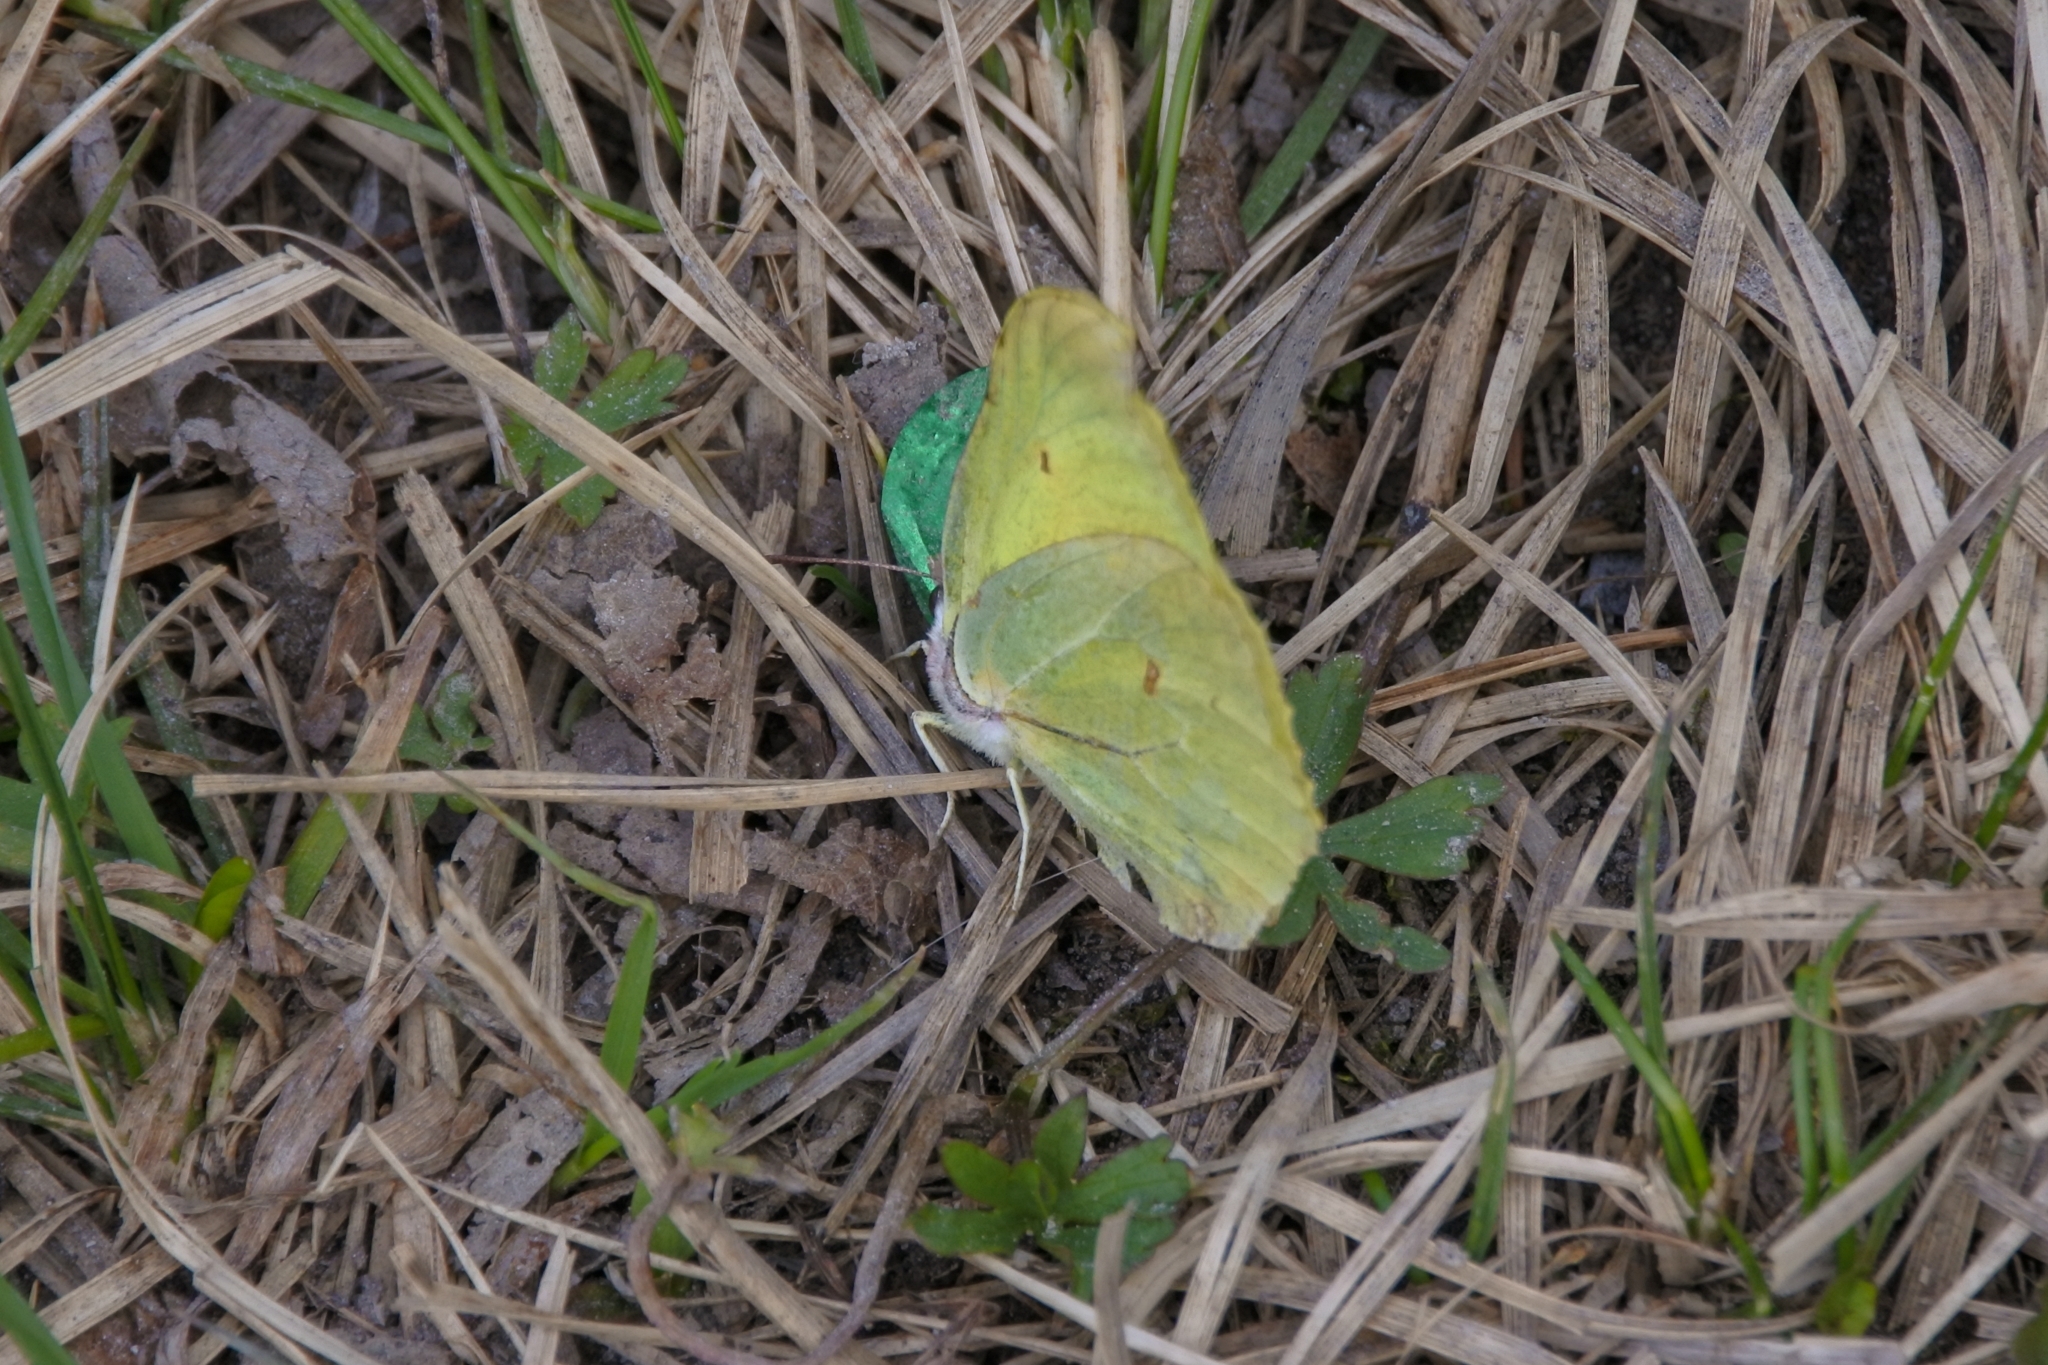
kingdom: Animalia
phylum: Arthropoda
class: Insecta
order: Lepidoptera
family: Pieridae
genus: Gonepteryx
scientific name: Gonepteryx rhamni
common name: Brimstone
